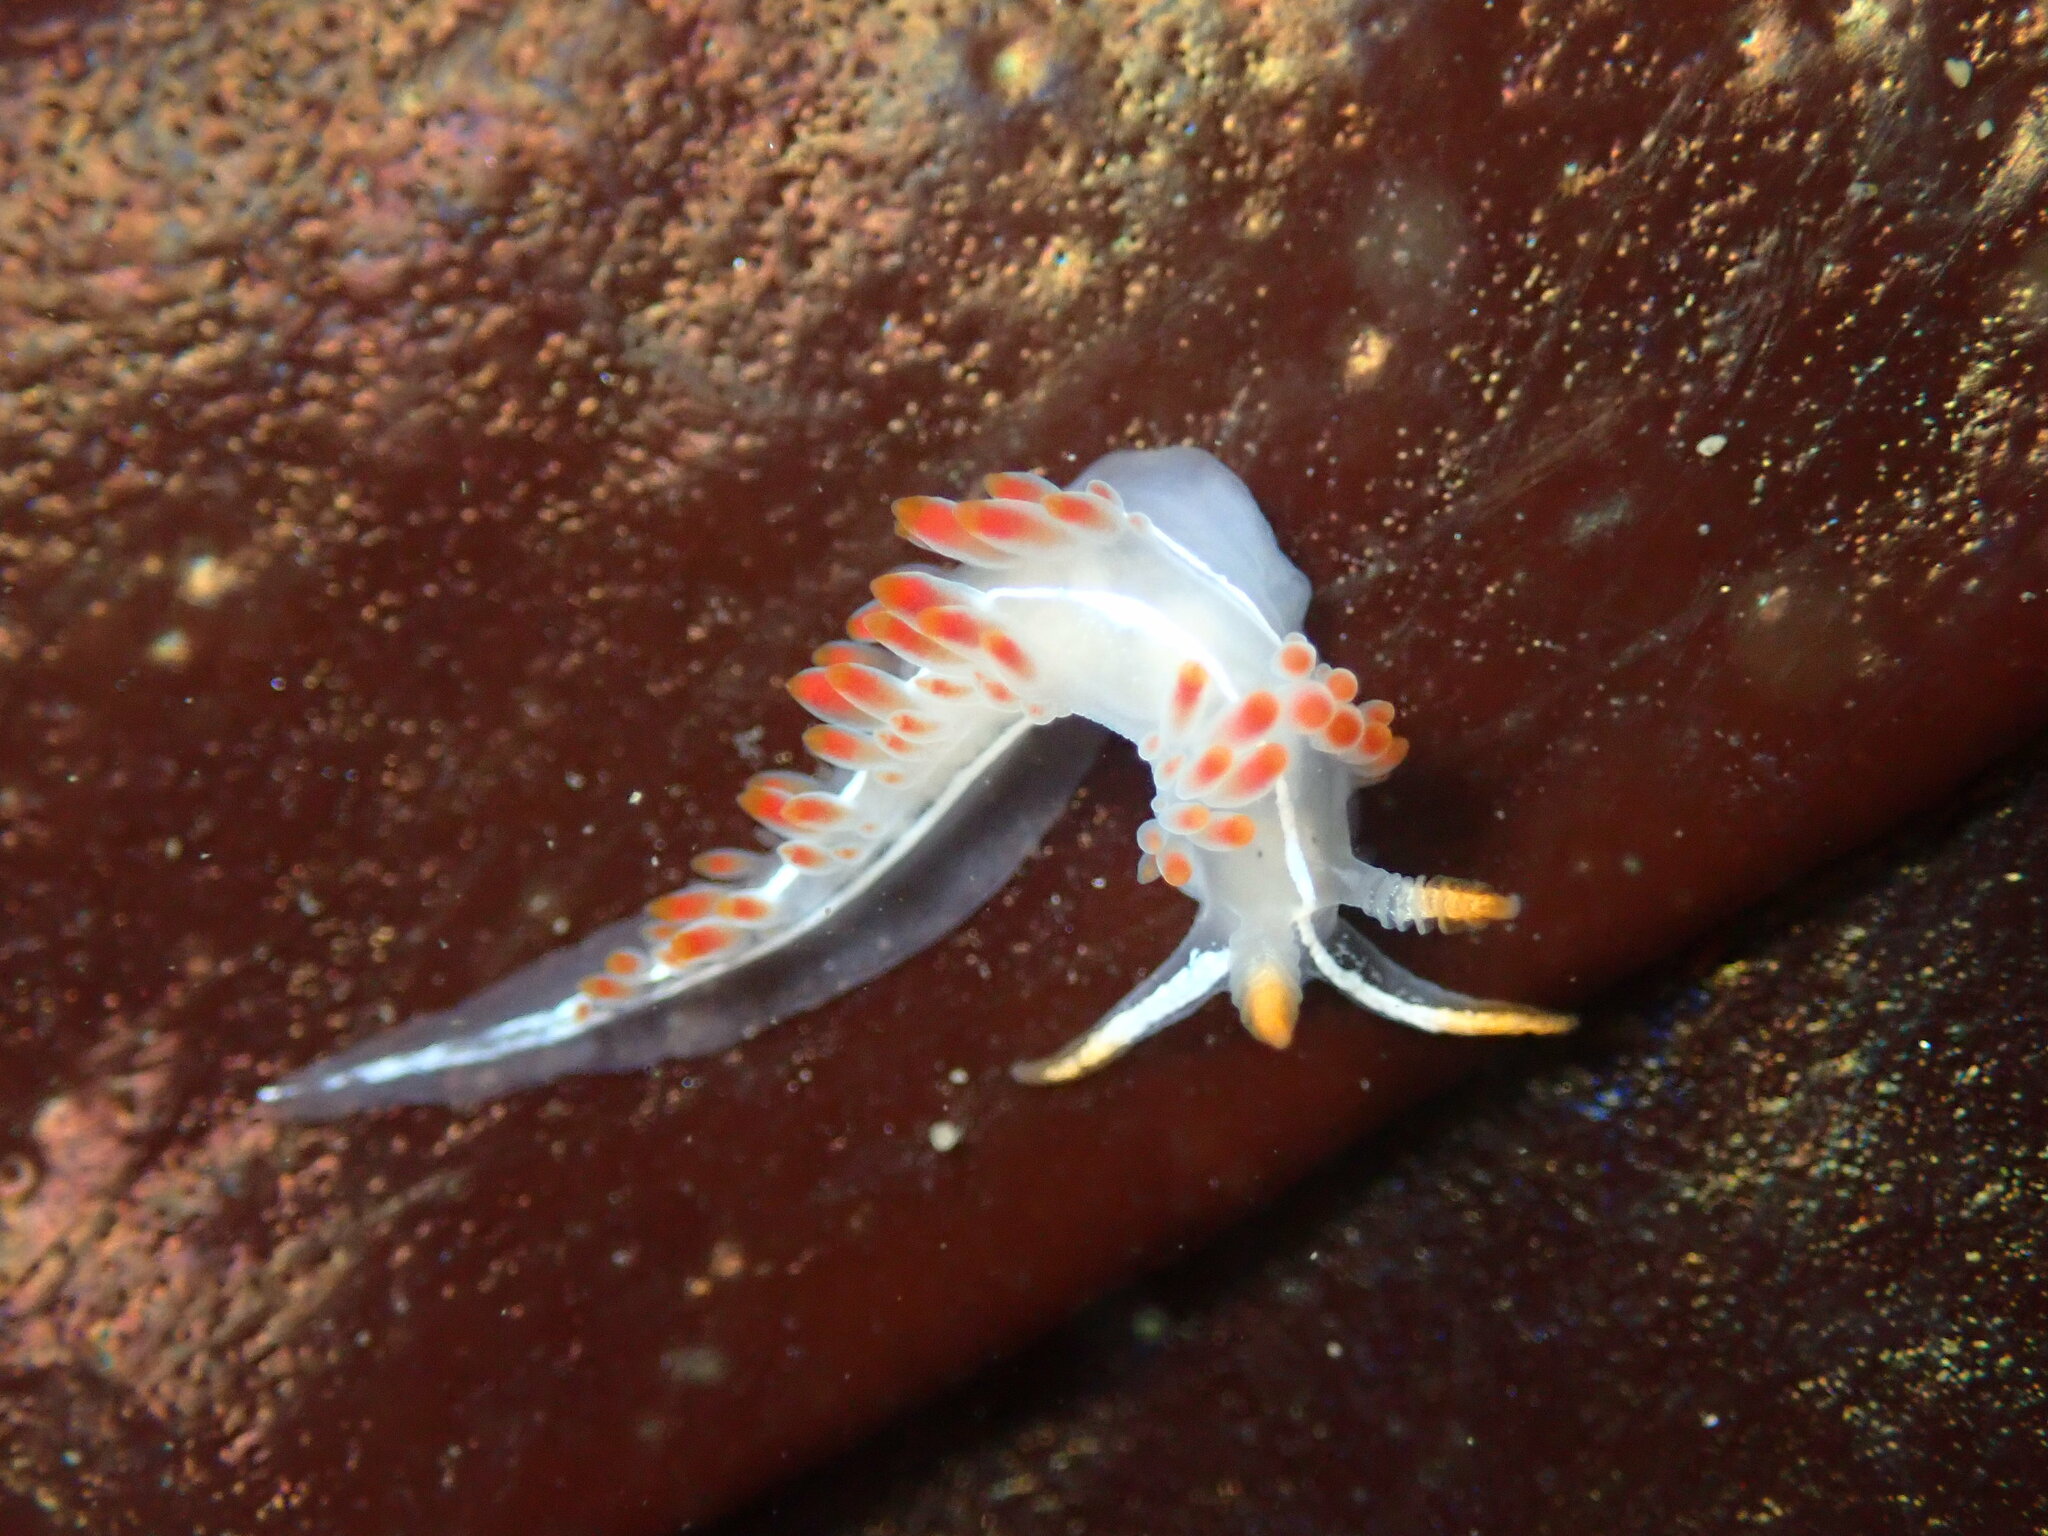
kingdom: Animalia
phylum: Mollusca
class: Gastropoda
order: Nudibranchia
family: Coryphellidae
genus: Coryphella
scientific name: Coryphella trilineata
